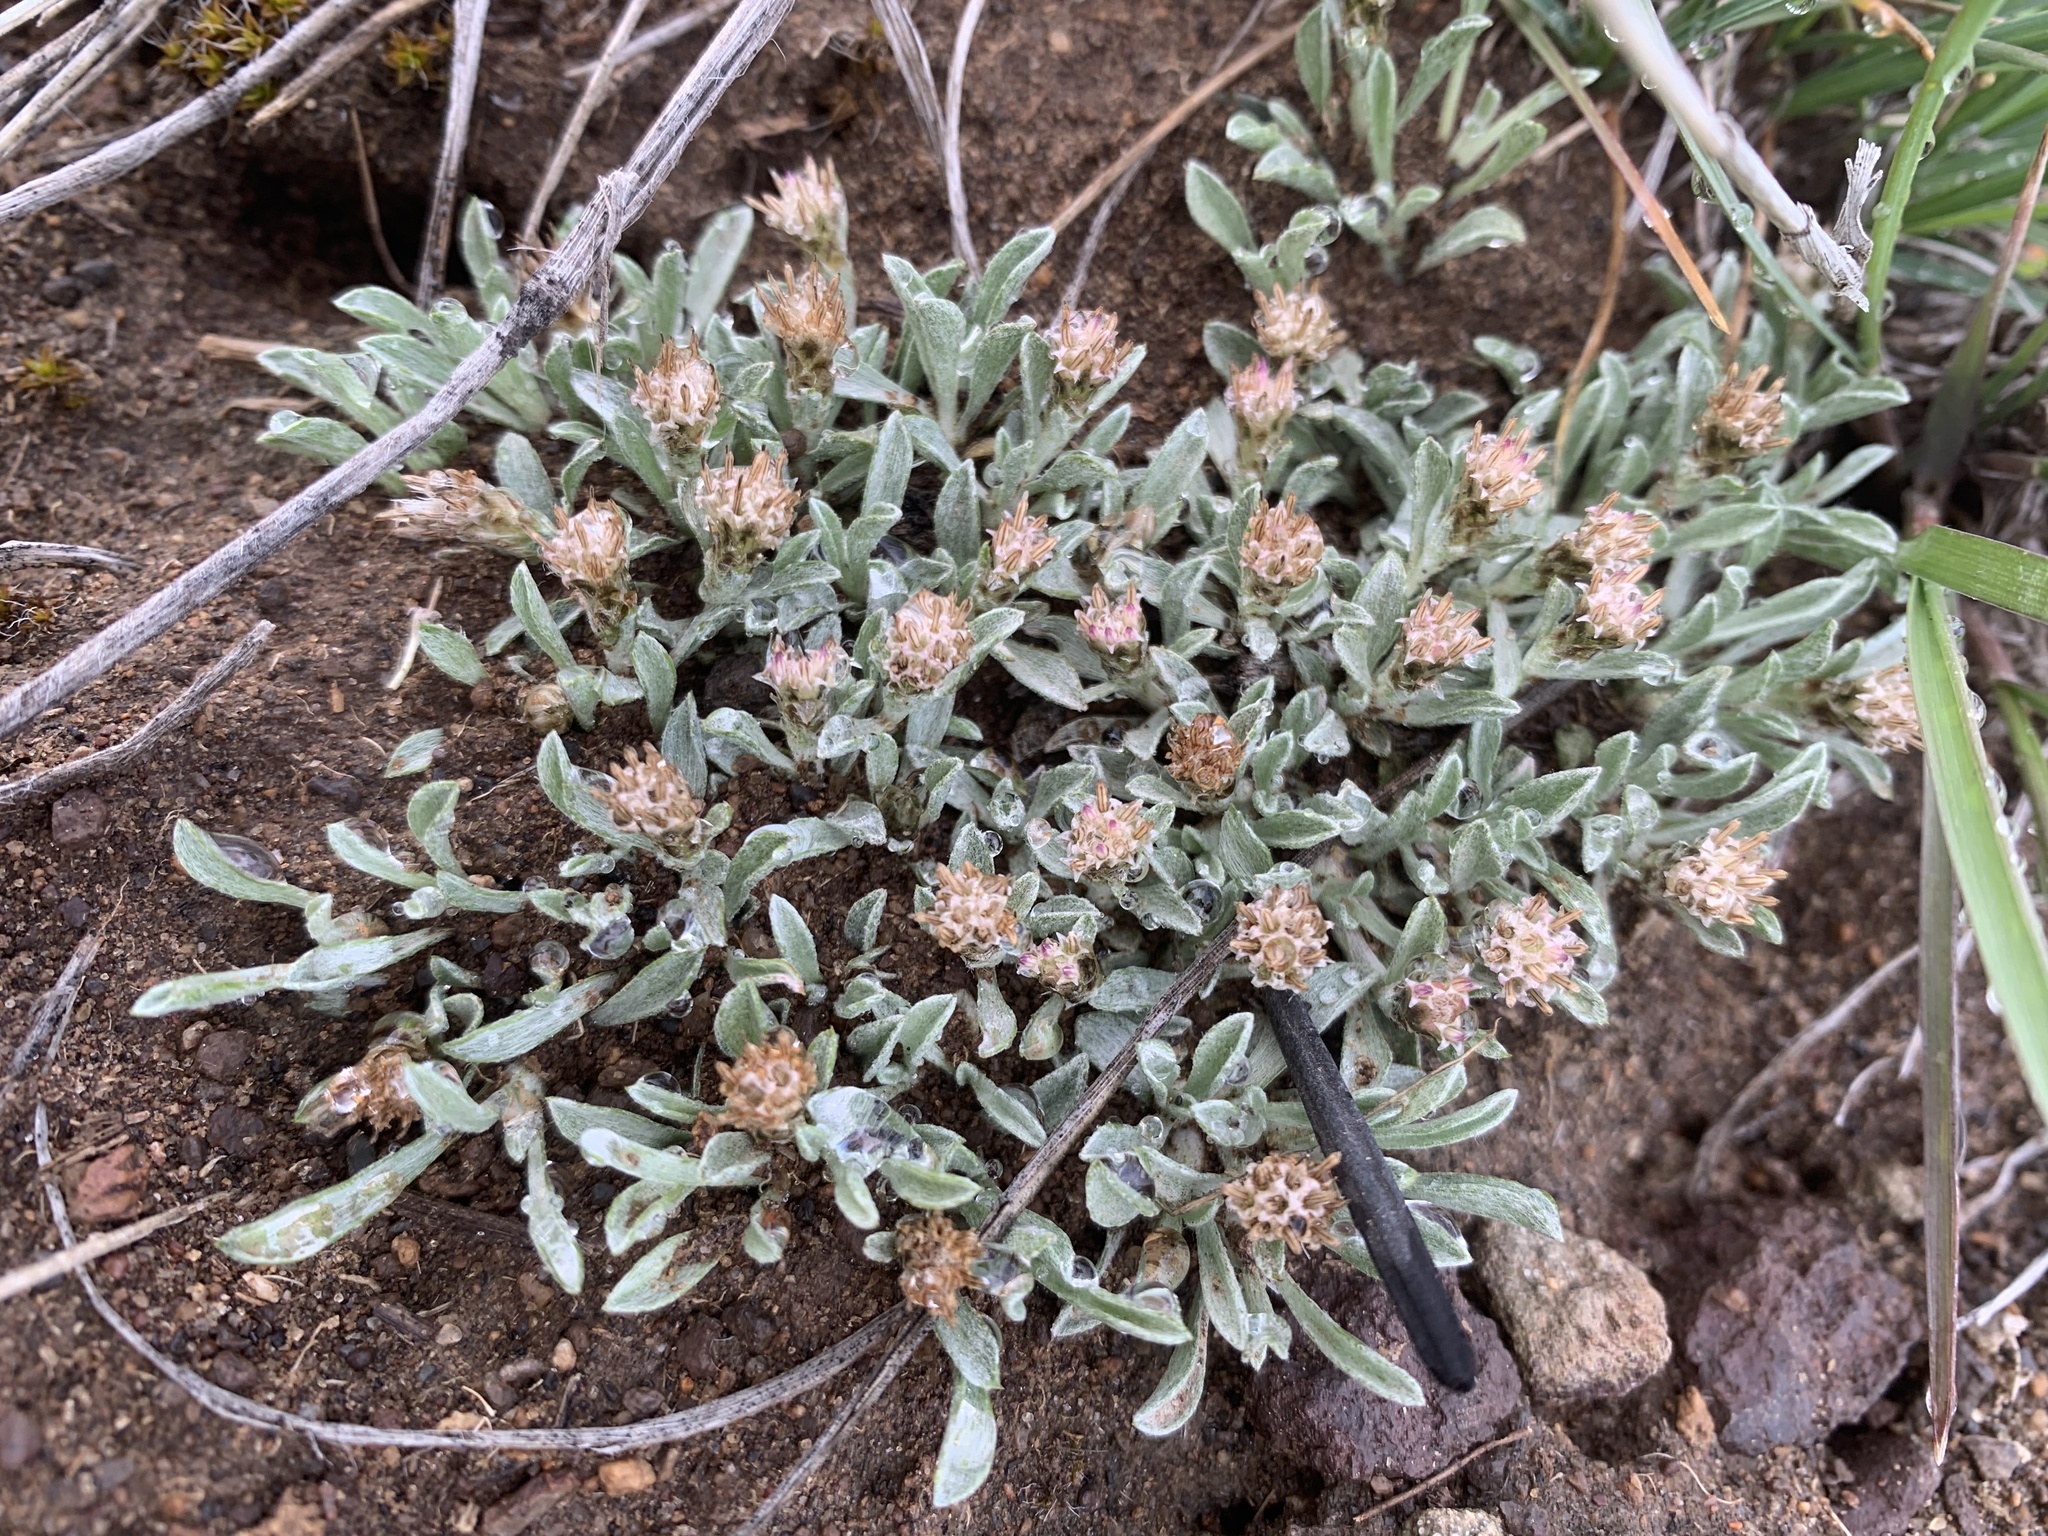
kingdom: Plantae
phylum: Tracheophyta
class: Magnoliopsida
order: Asterales
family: Asteraceae
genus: Antennaria
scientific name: Antennaria dimorpha
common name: Cushion pussytoes
